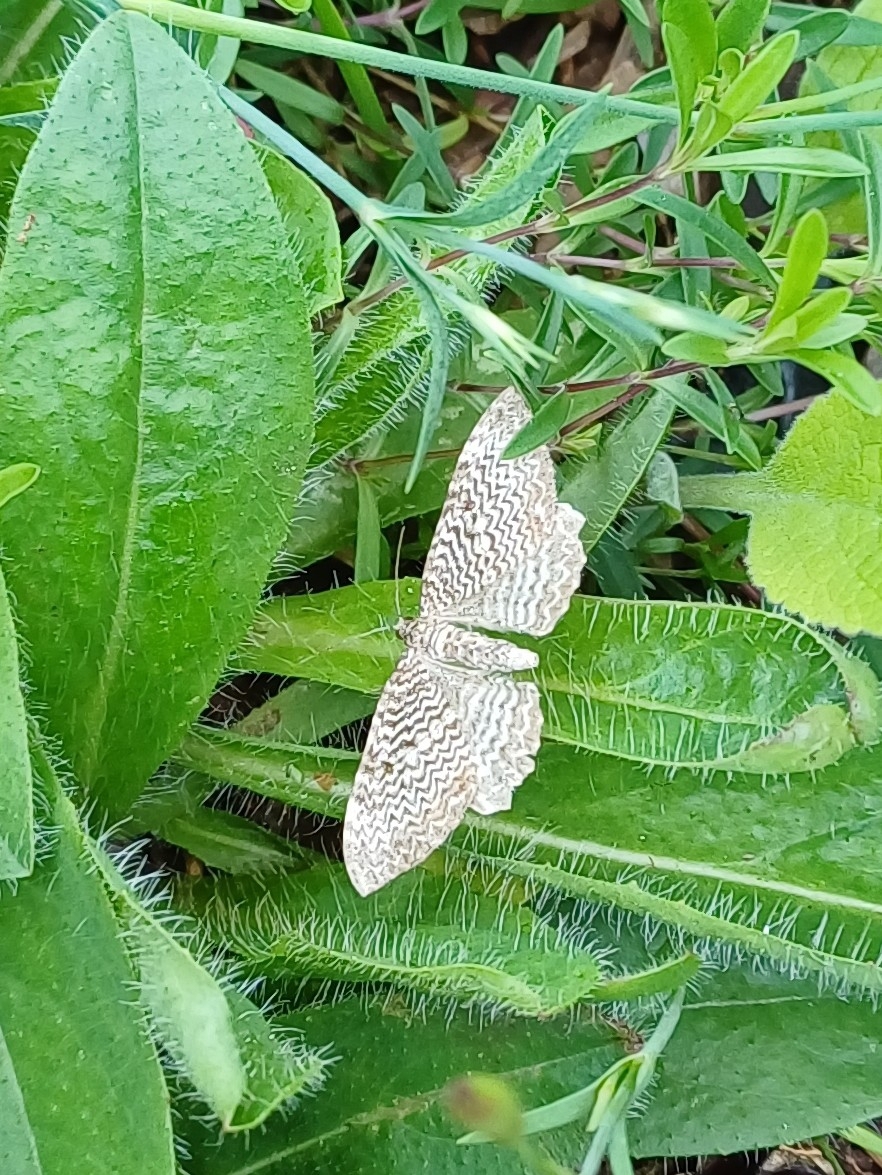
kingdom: Animalia
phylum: Arthropoda
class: Insecta
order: Lepidoptera
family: Geometridae
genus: Rheumaptera
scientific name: Rheumaptera undulata
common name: Scallop shell
